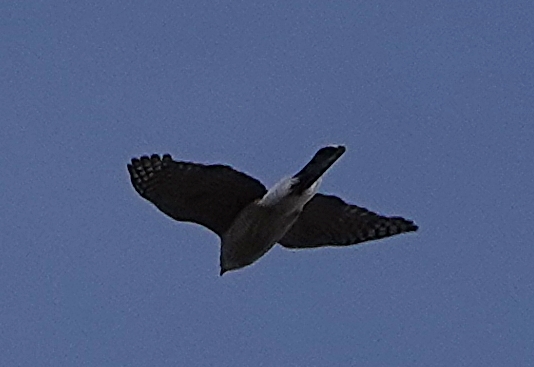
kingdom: Animalia
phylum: Chordata
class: Aves
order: Accipitriformes
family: Accipitridae
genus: Accipiter
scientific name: Accipiter cooperii
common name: Cooper's hawk
